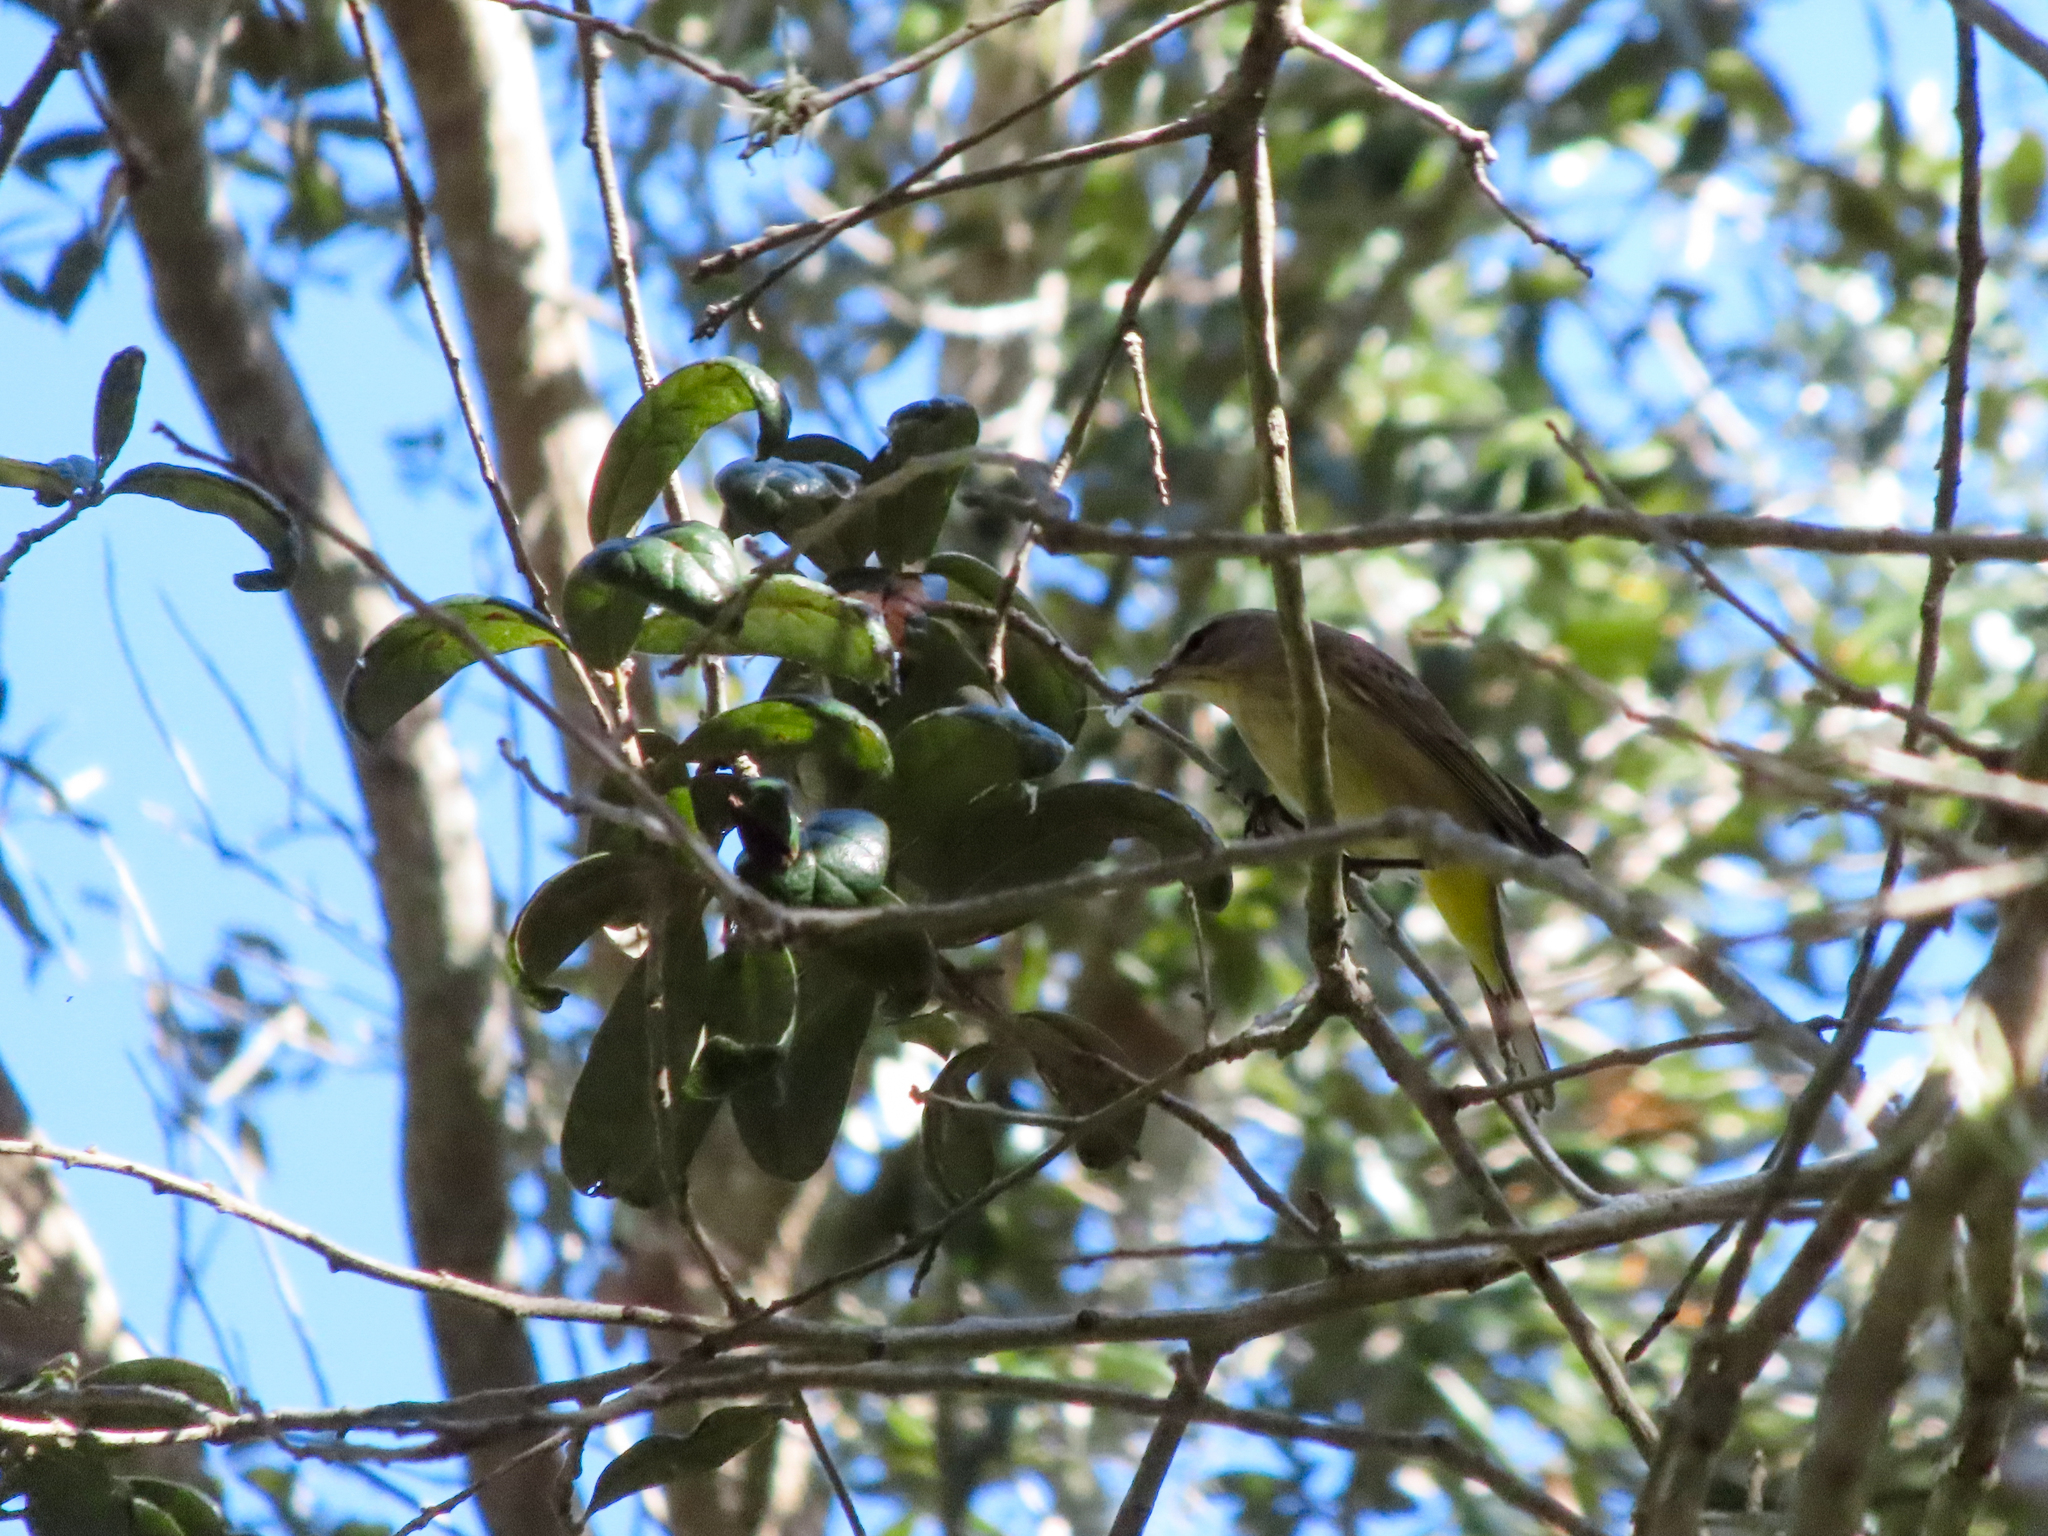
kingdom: Animalia
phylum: Chordata
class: Aves
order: Passeriformes
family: Parulidae
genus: Setophaga
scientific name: Setophaga palmarum
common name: Palm warbler
